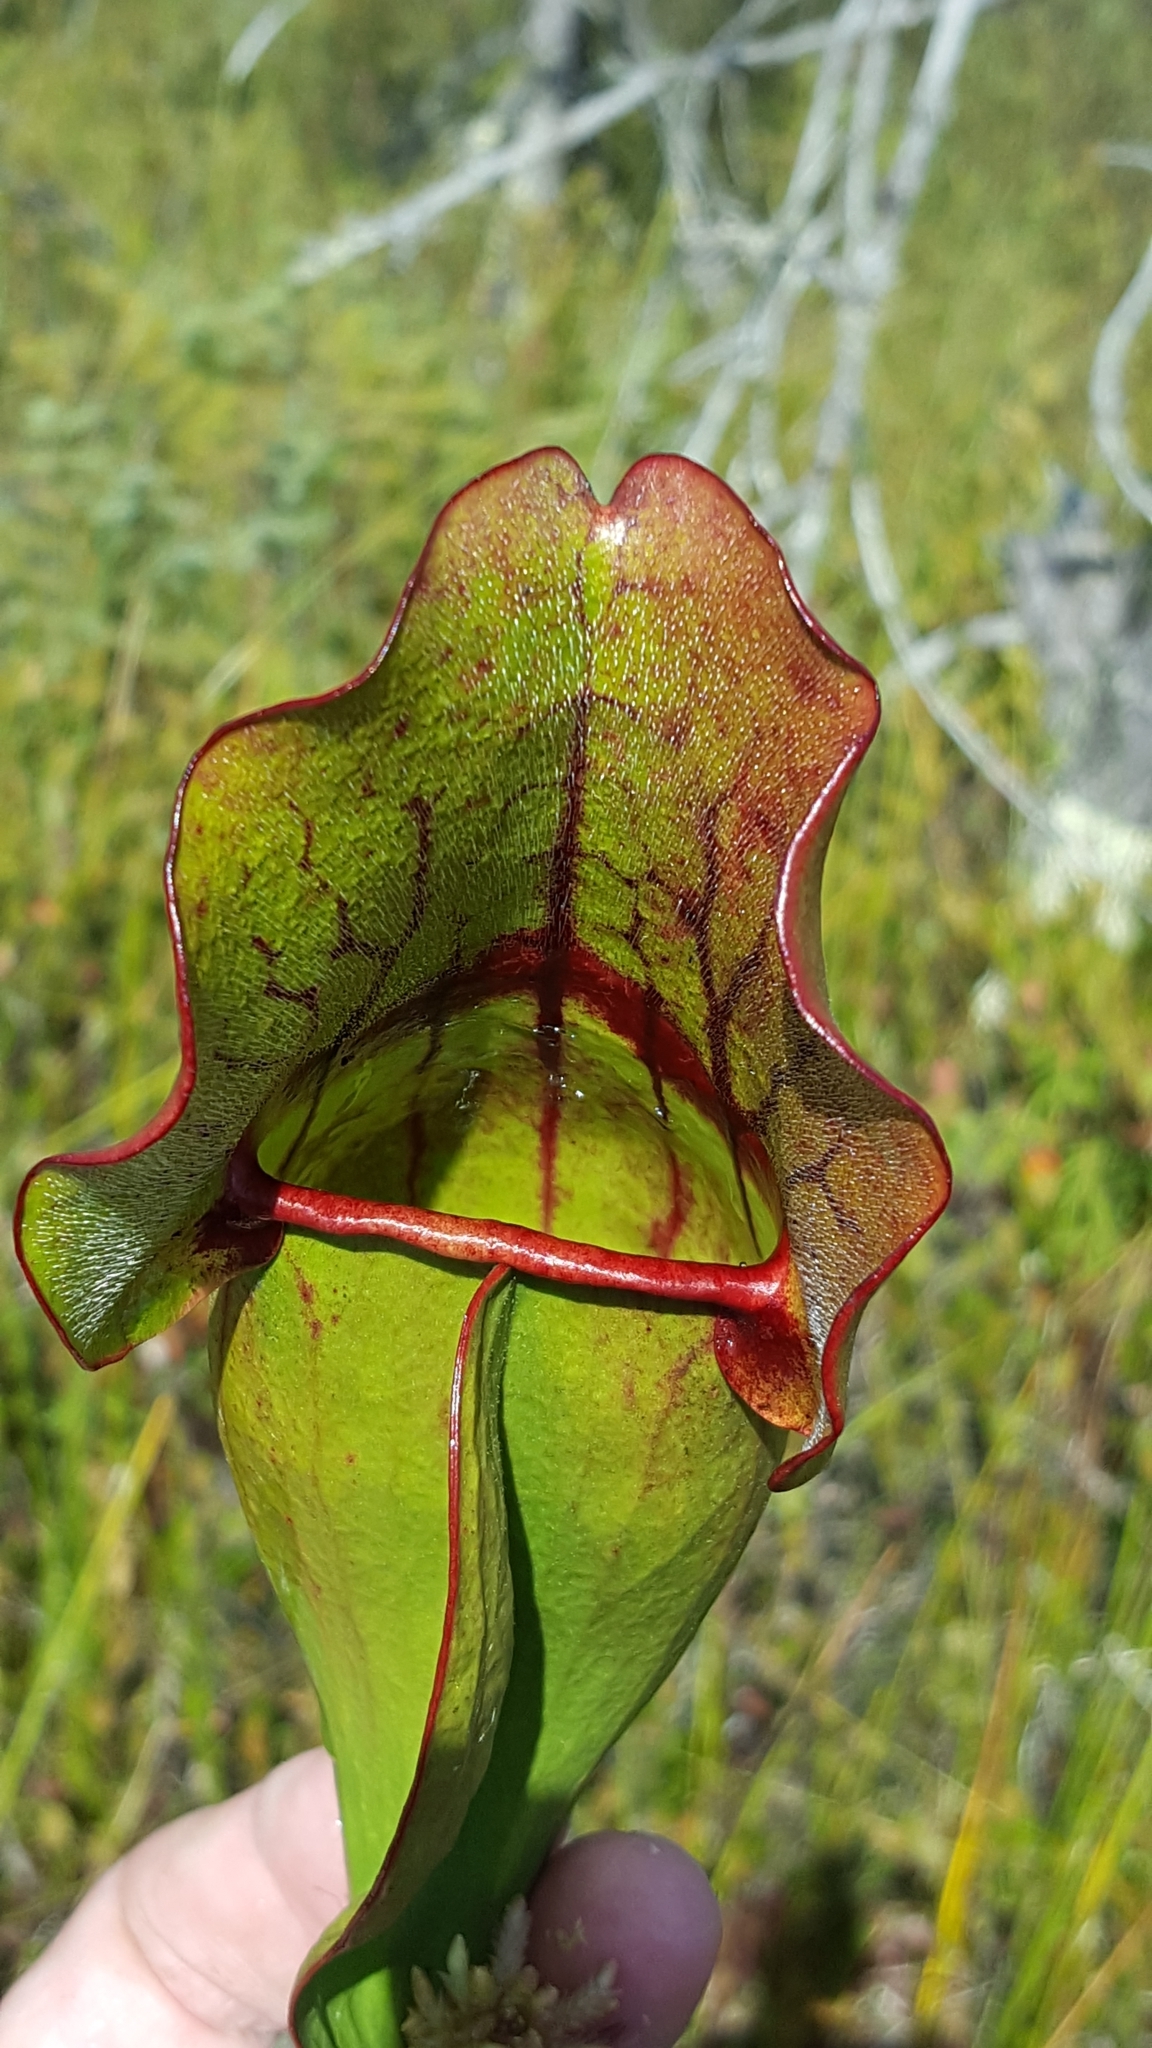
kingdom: Plantae
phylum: Tracheophyta
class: Magnoliopsida
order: Ericales
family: Sarraceniaceae
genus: Sarracenia
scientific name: Sarracenia purpurea
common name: Pitcherplant
